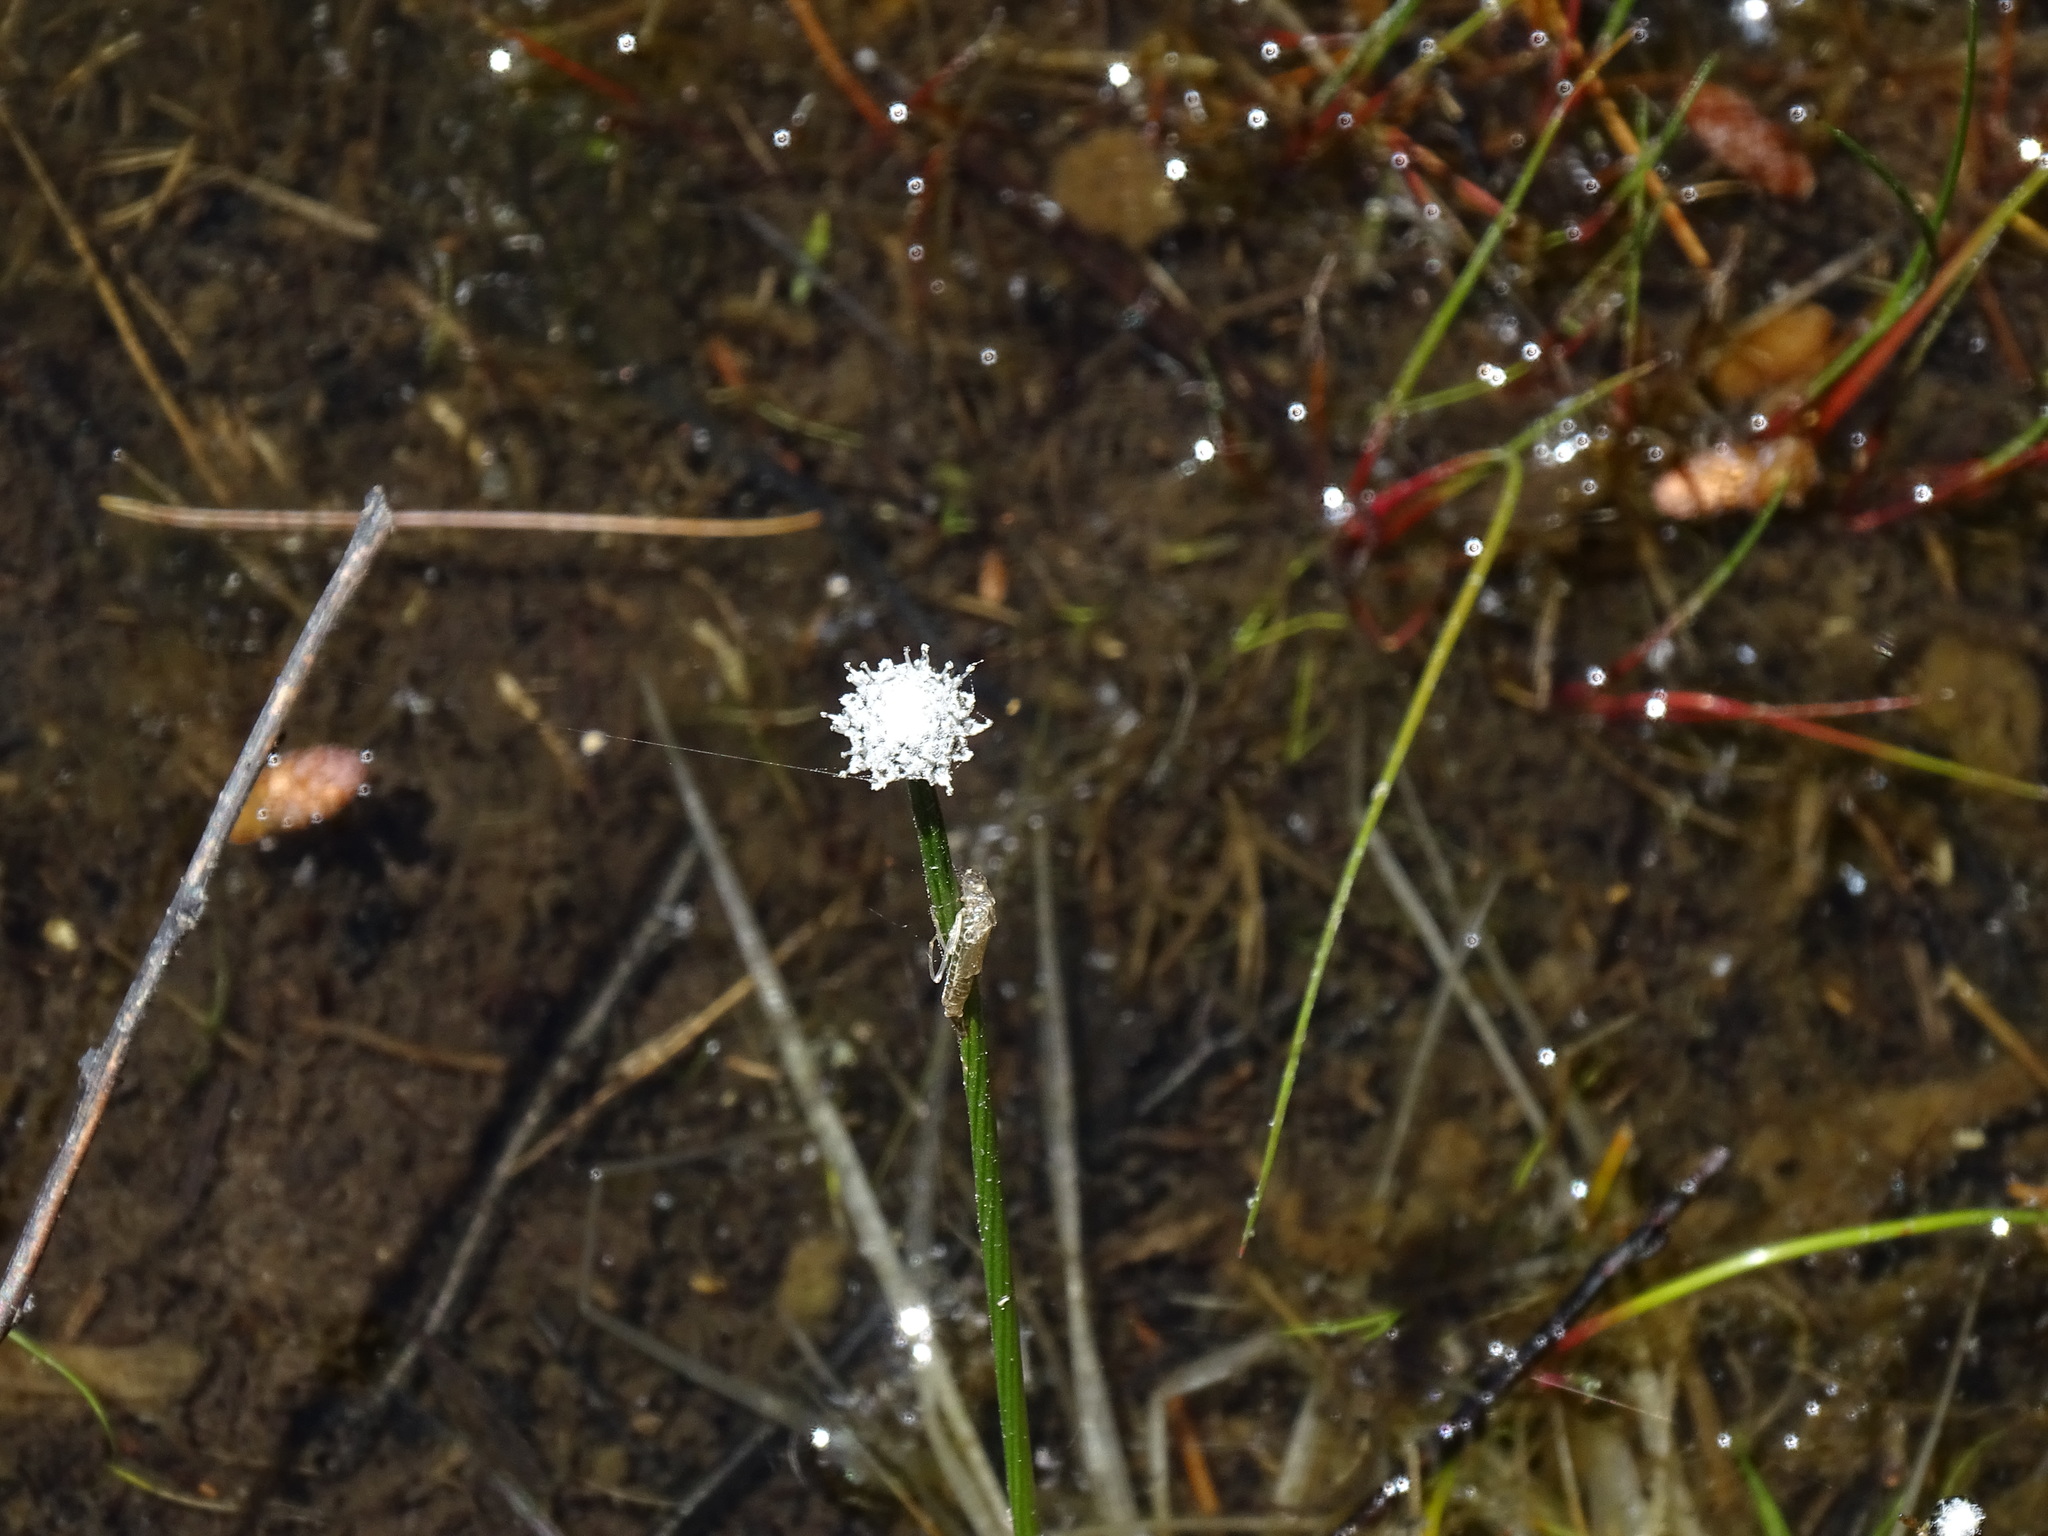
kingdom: Plantae
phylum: Tracheophyta
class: Liliopsida
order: Poales
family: Eriocaulaceae
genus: Eriocaulon
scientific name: Eriocaulon aquaticum
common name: Pipewort
